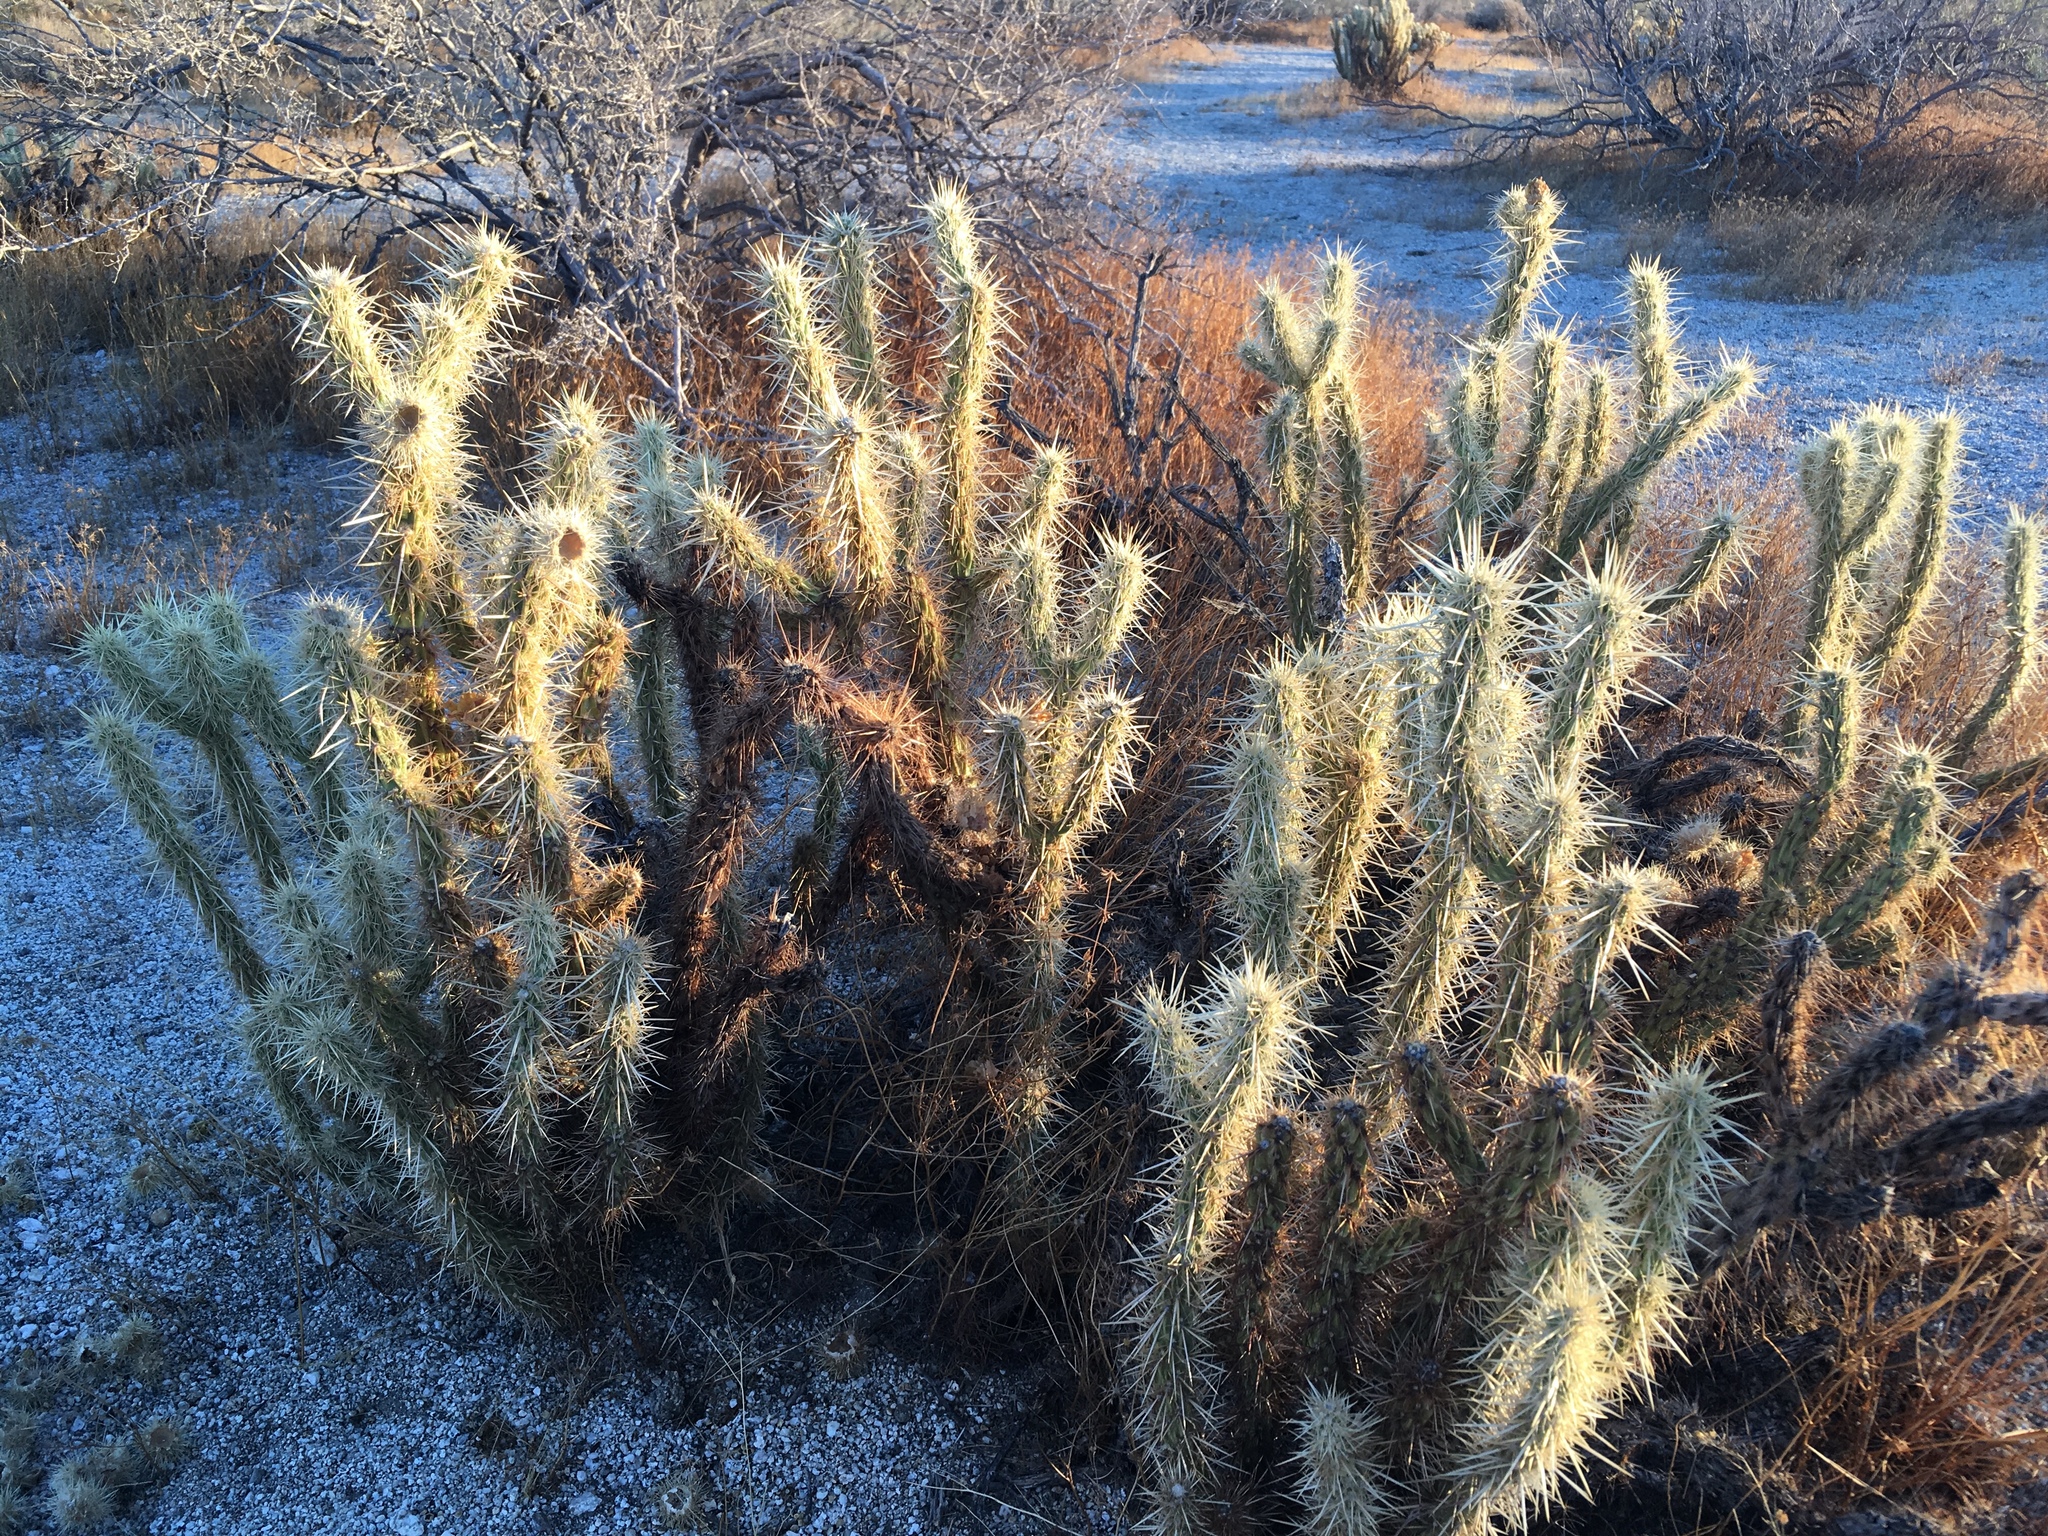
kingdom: Plantae
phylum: Tracheophyta
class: Magnoliopsida
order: Caryophyllales
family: Cactaceae
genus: Cylindropuntia
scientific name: Cylindropuntia ganderi
